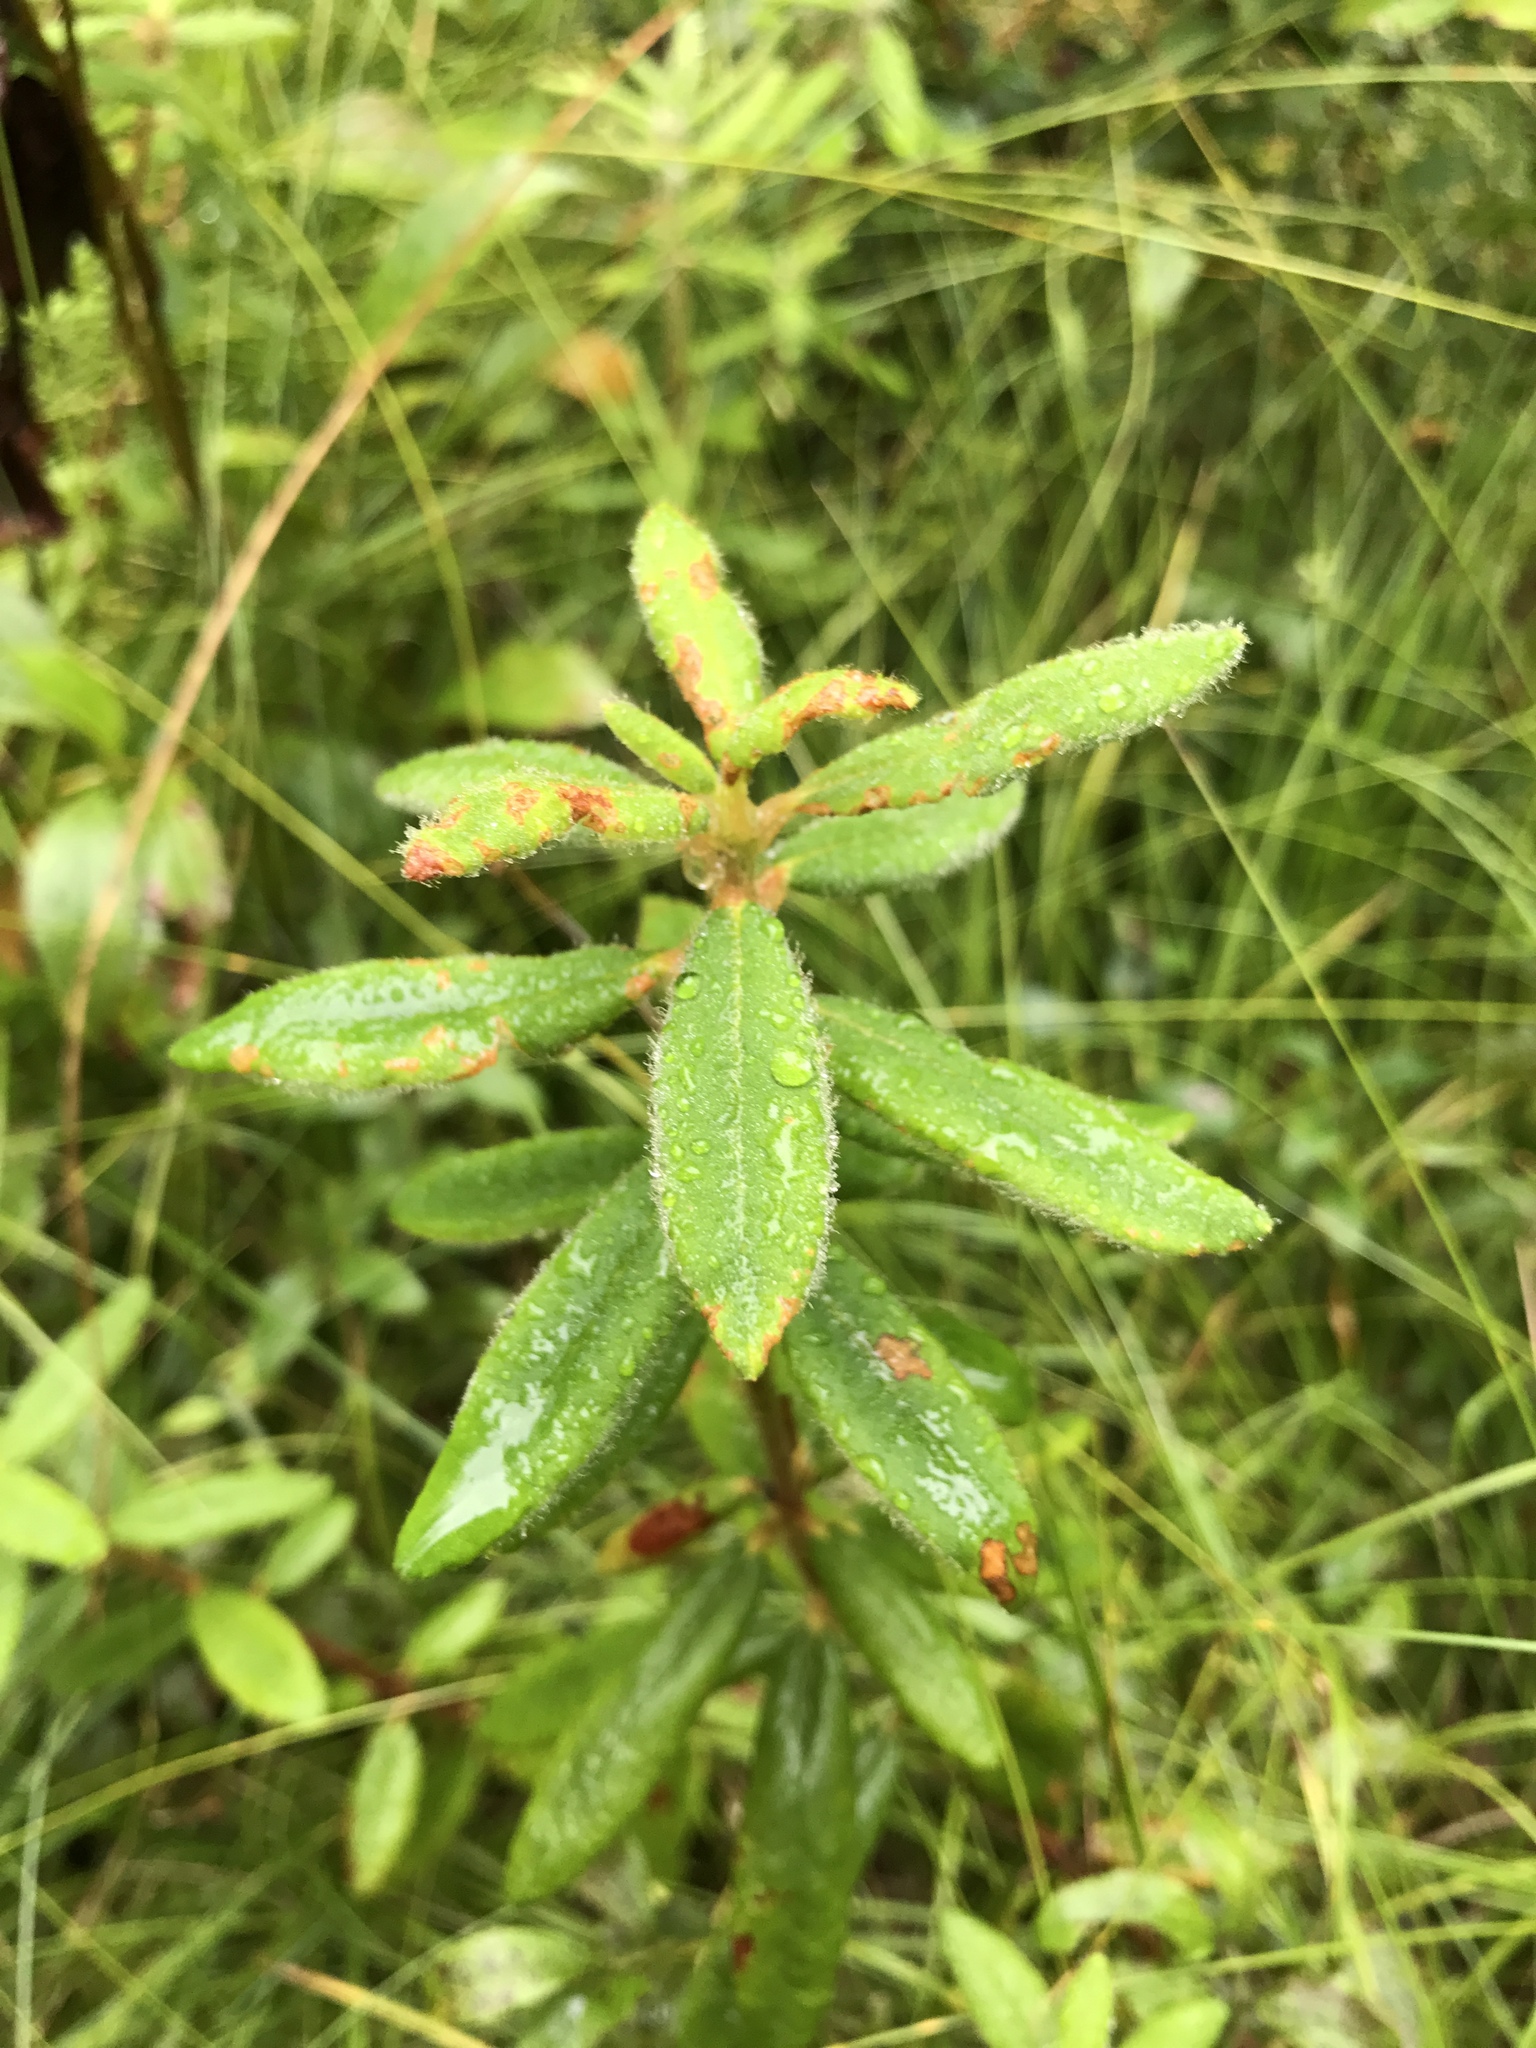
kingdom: Plantae
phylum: Tracheophyta
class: Magnoliopsida
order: Ericales
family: Ericaceae
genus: Rhododendron
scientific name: Rhododendron groenlandicum
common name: Bog labrador tea
